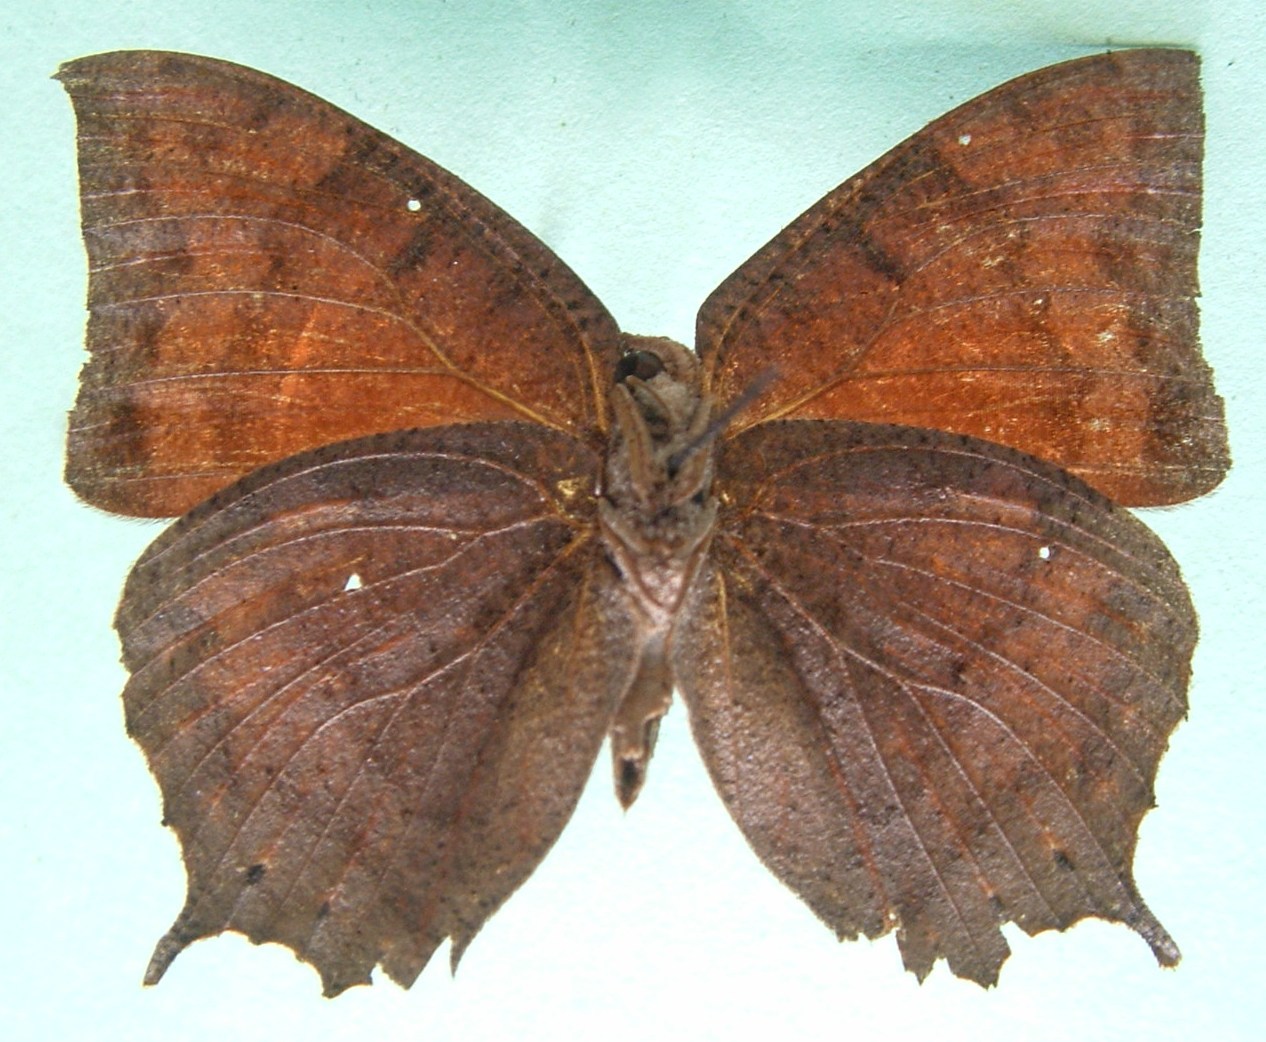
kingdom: Animalia
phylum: Arthropoda
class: Insecta
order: Lepidoptera
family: Nymphalidae
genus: Anaea
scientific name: Anaea aidea
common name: Tropical leafwing
